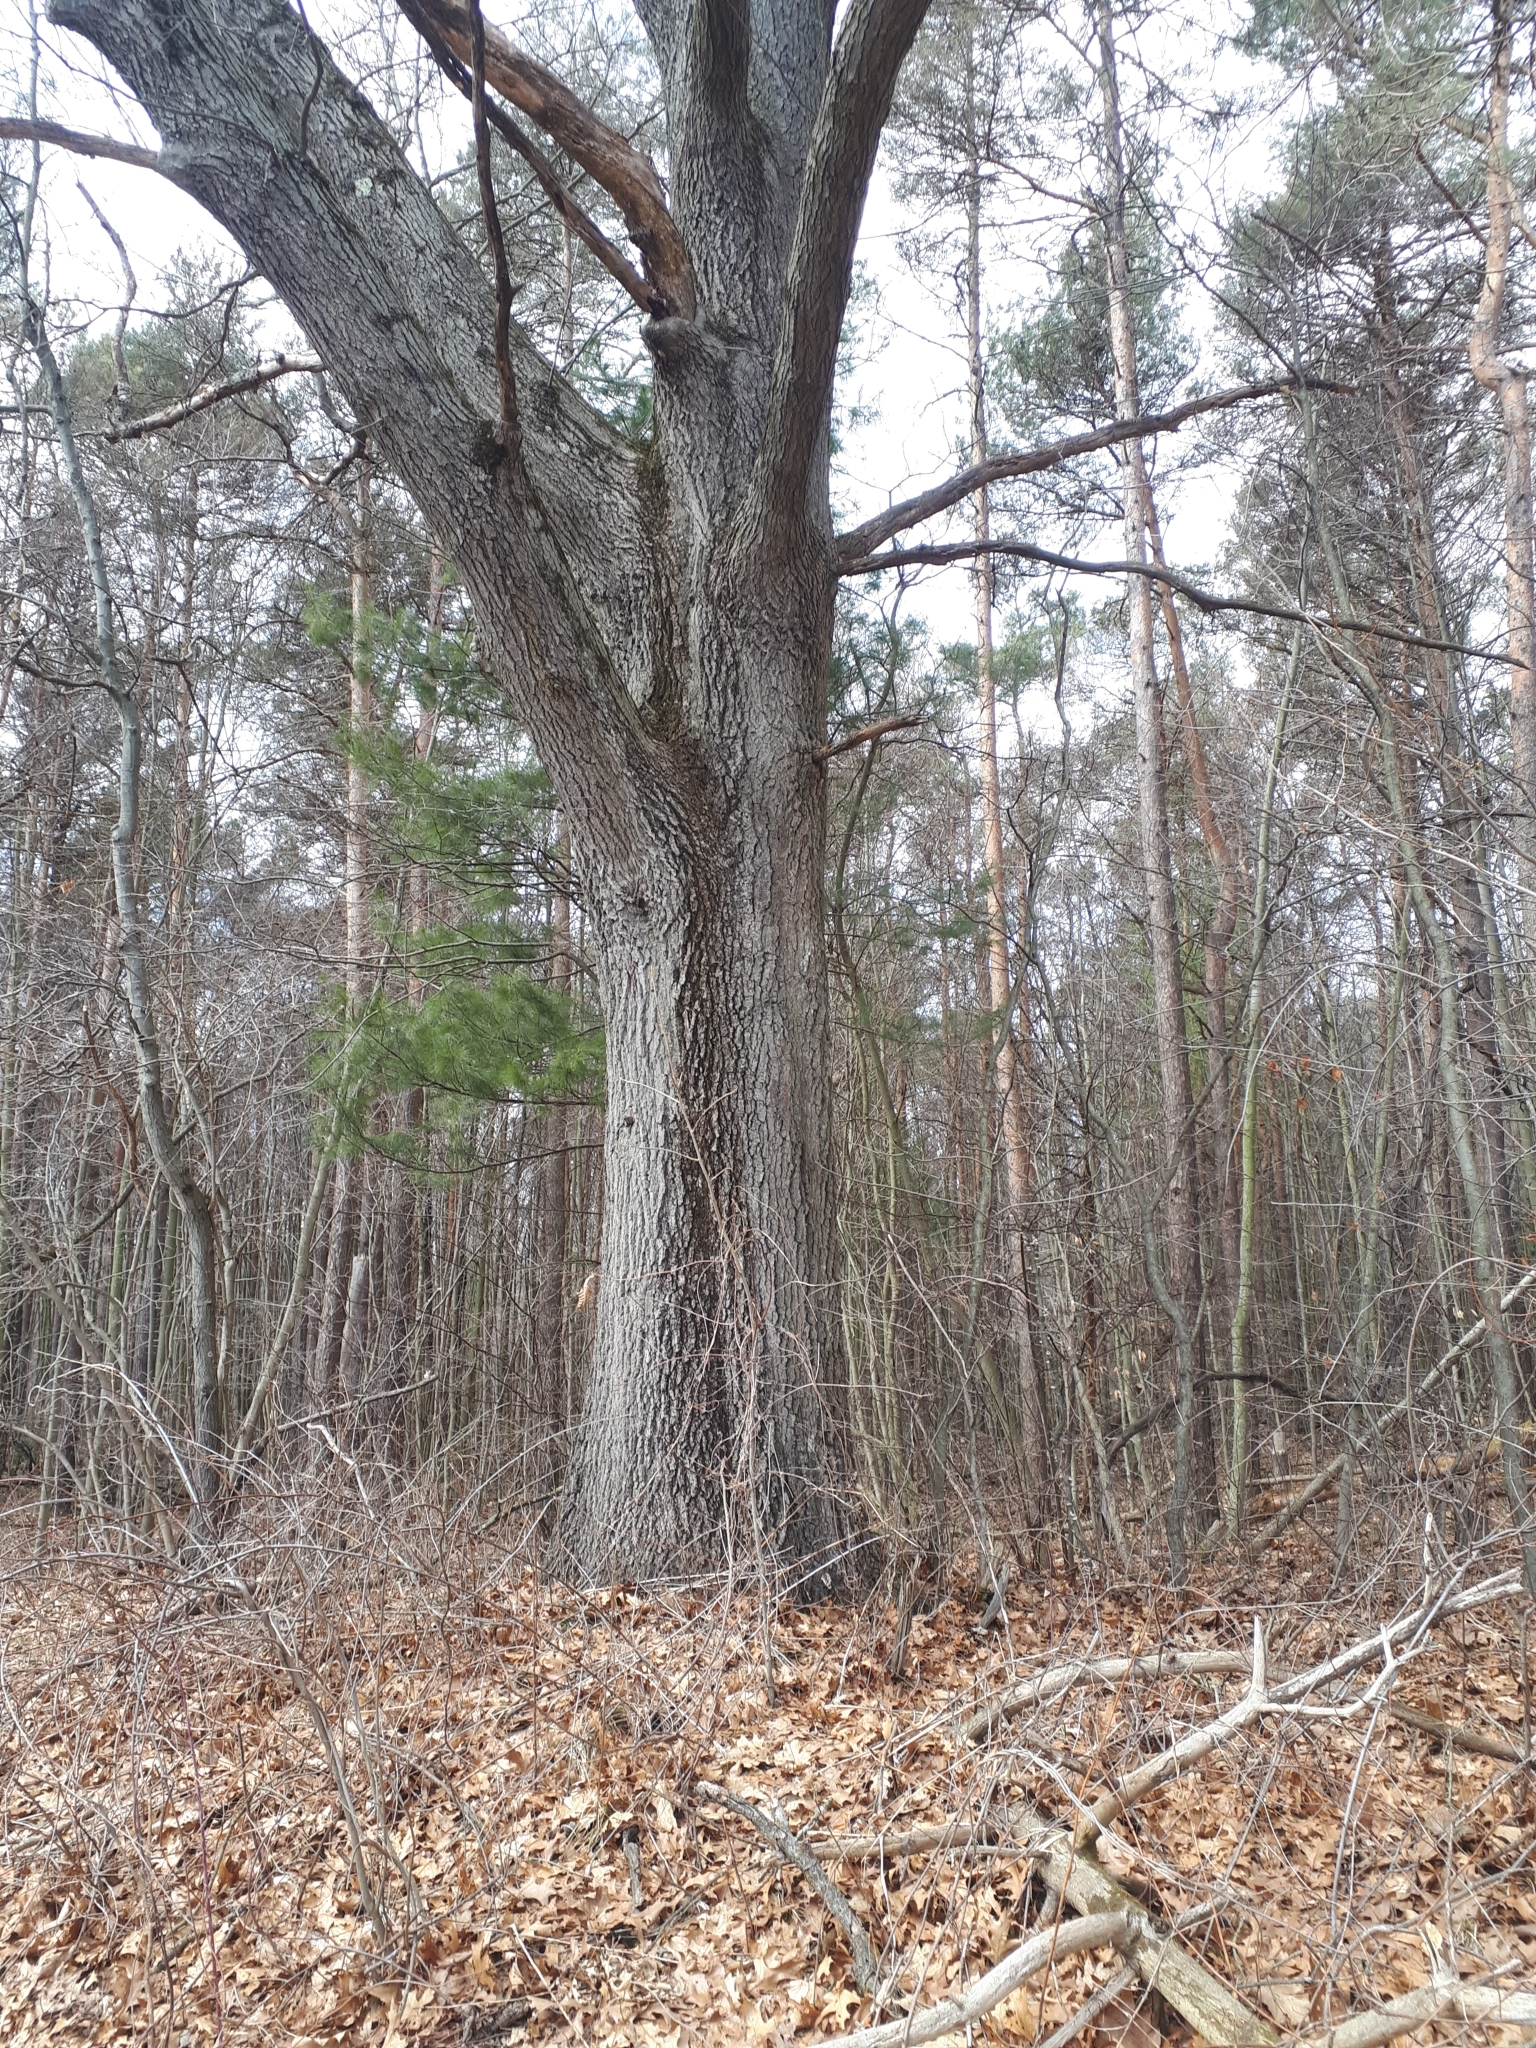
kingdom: Plantae
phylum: Tracheophyta
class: Magnoliopsida
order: Fagales
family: Fagaceae
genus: Quercus
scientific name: Quercus velutina
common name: Black oak
